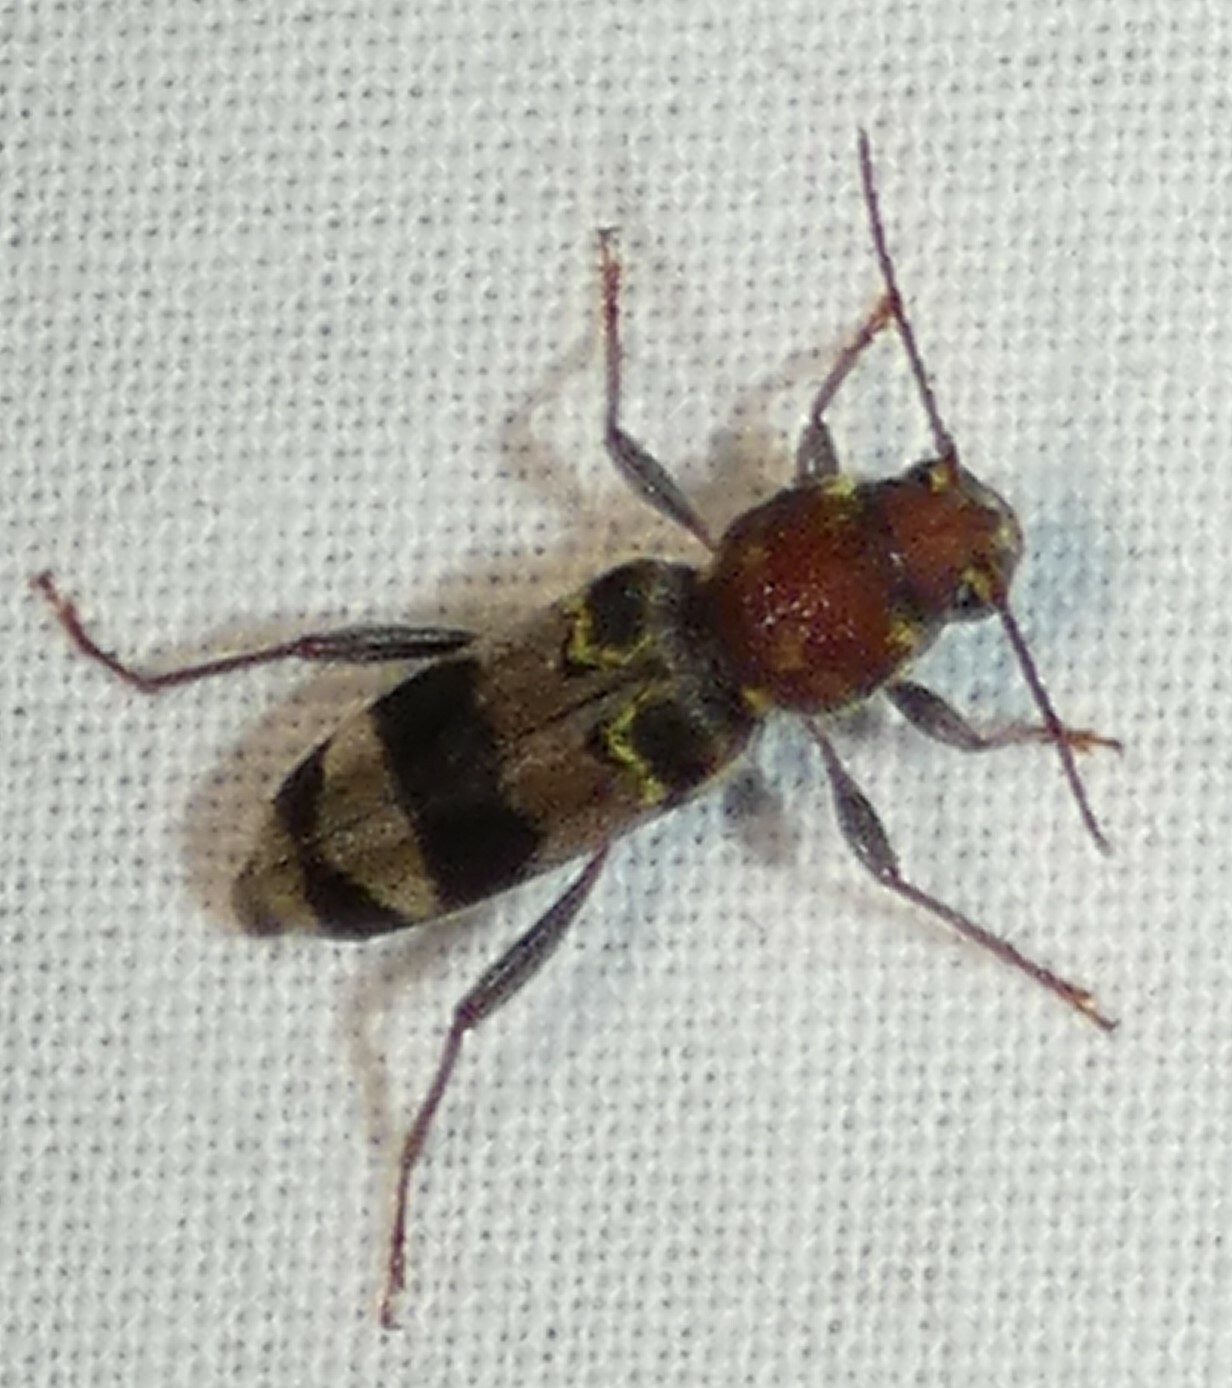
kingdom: Animalia
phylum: Arthropoda
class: Insecta
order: Coleoptera
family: Cerambycidae
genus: Xylotrechus
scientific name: Xylotrechus colonus
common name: Long-horned beetle
